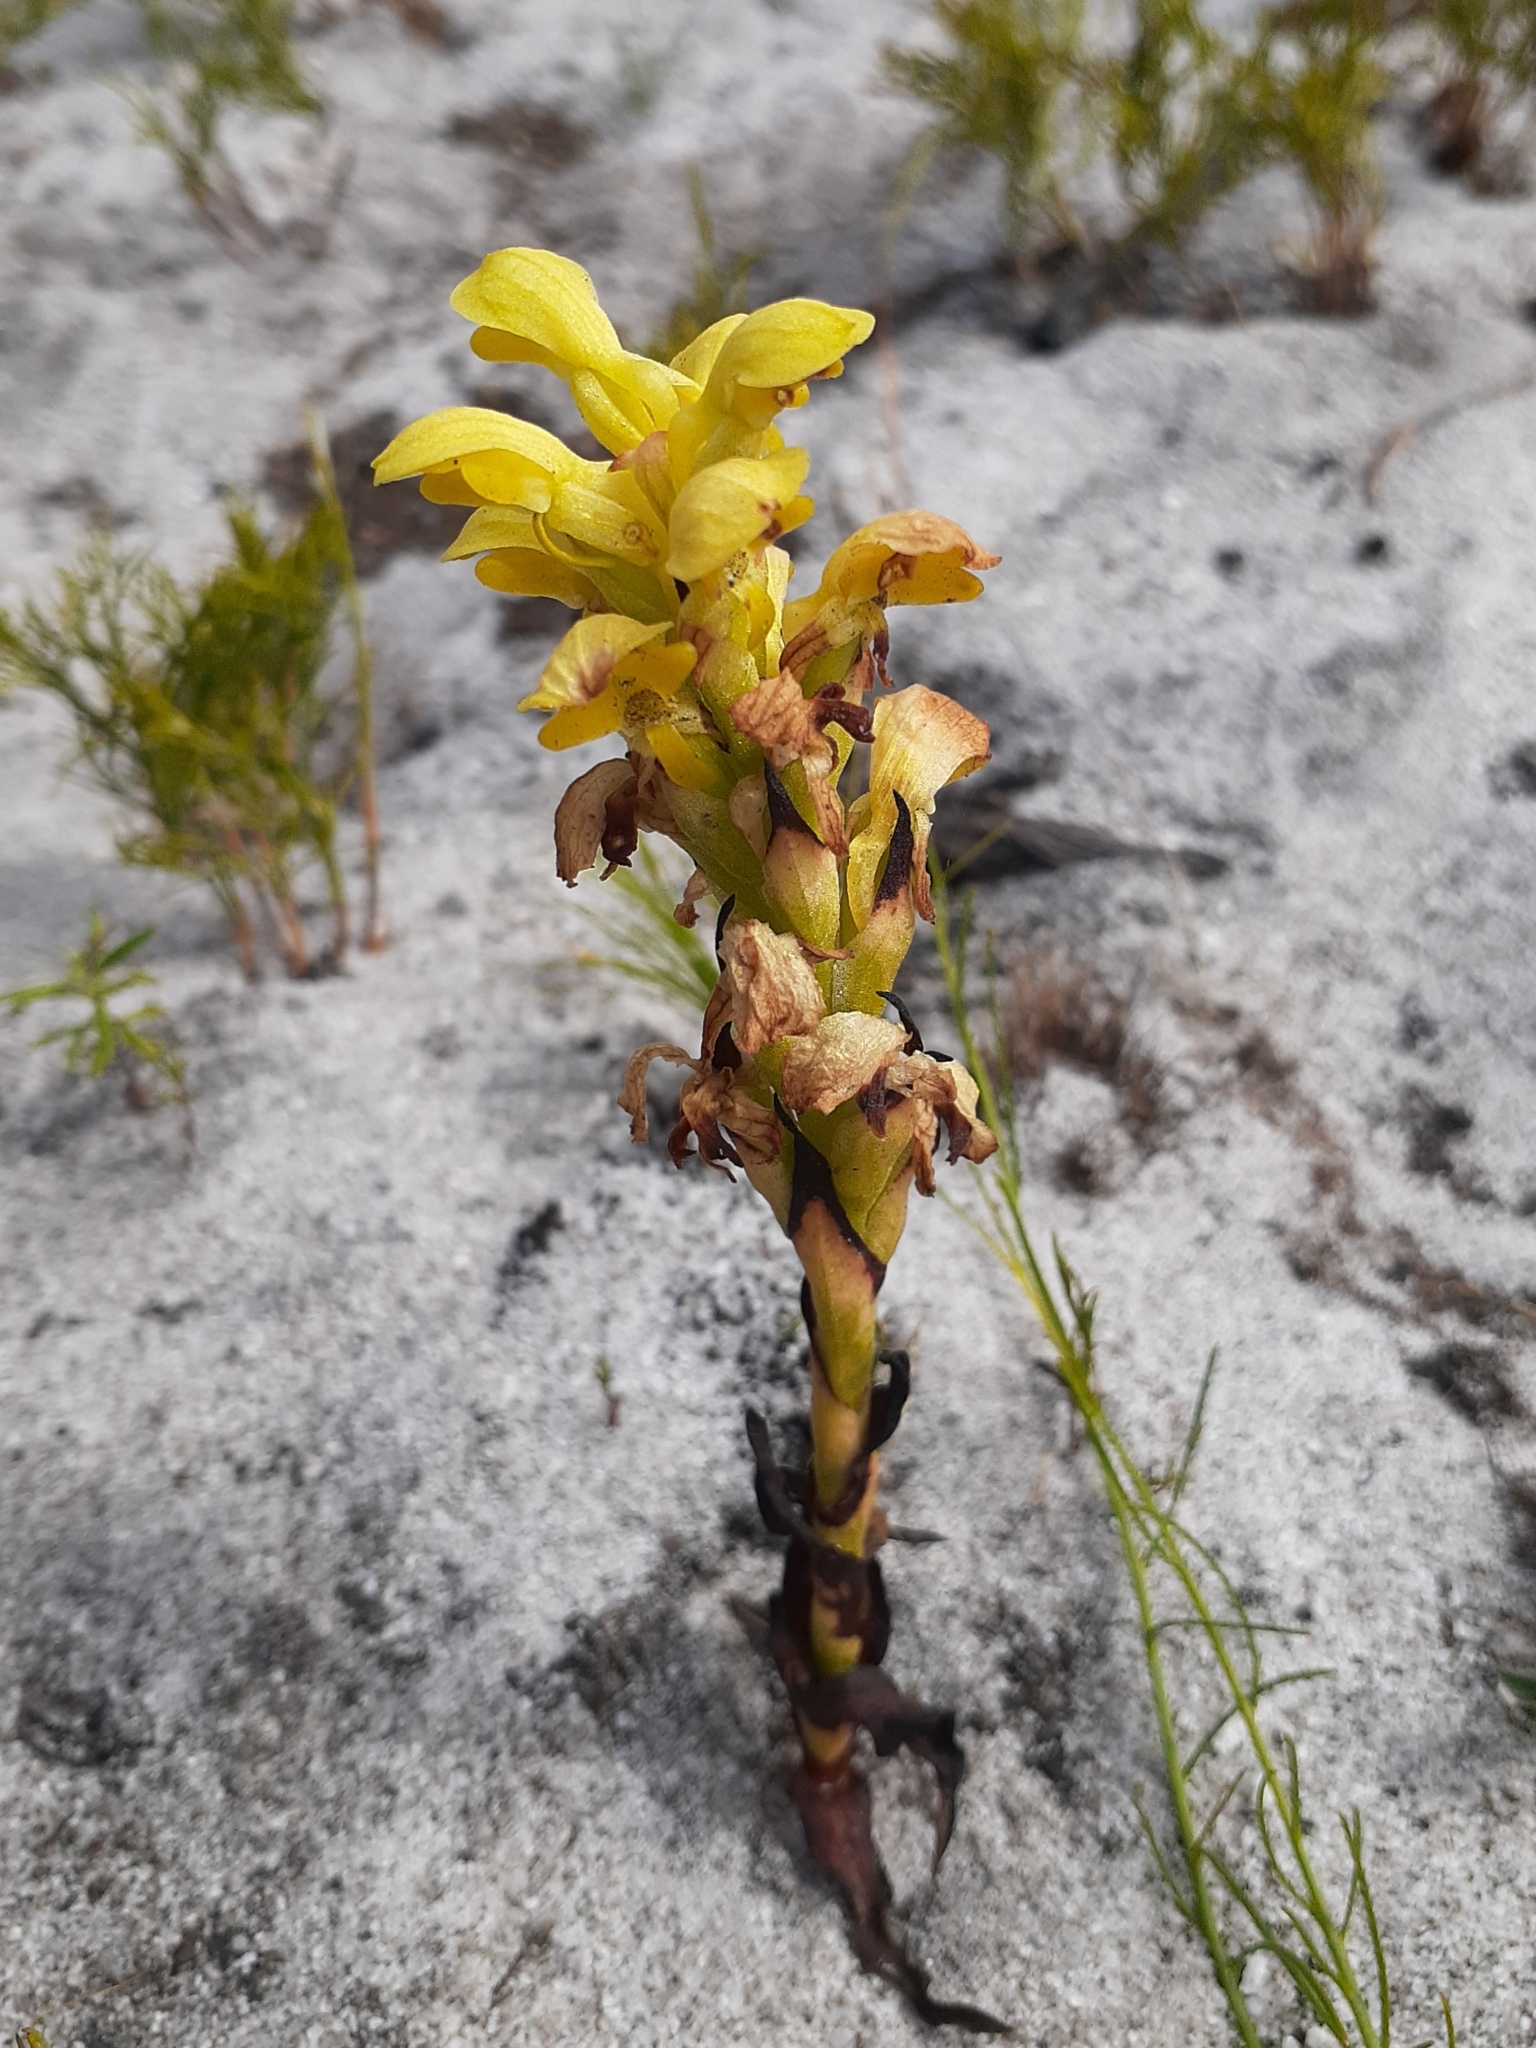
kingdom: Plantae
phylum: Tracheophyta
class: Liliopsida
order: Asparagales
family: Orchidaceae
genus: Disa
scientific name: Disa sabulosa
